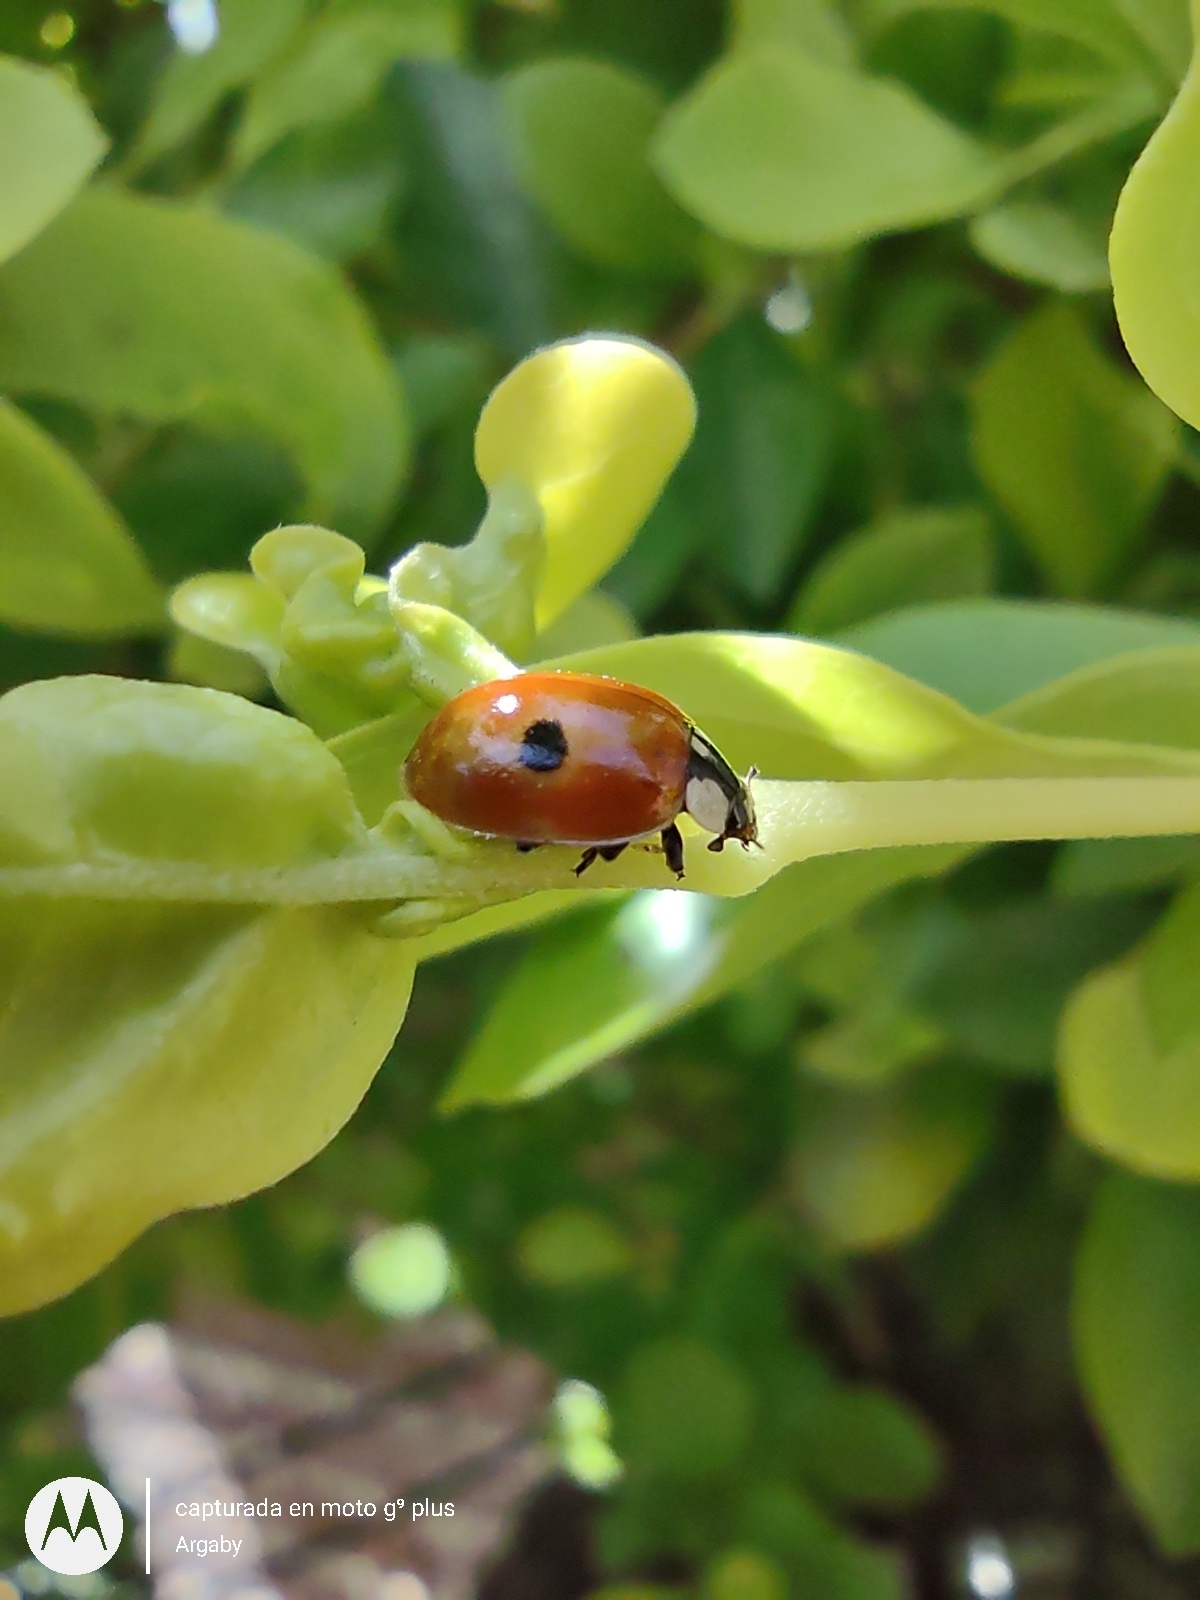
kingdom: Animalia
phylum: Arthropoda
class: Insecta
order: Coleoptera
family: Coccinellidae
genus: Adalia
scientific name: Adalia bipunctata
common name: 2-spot ladybird
